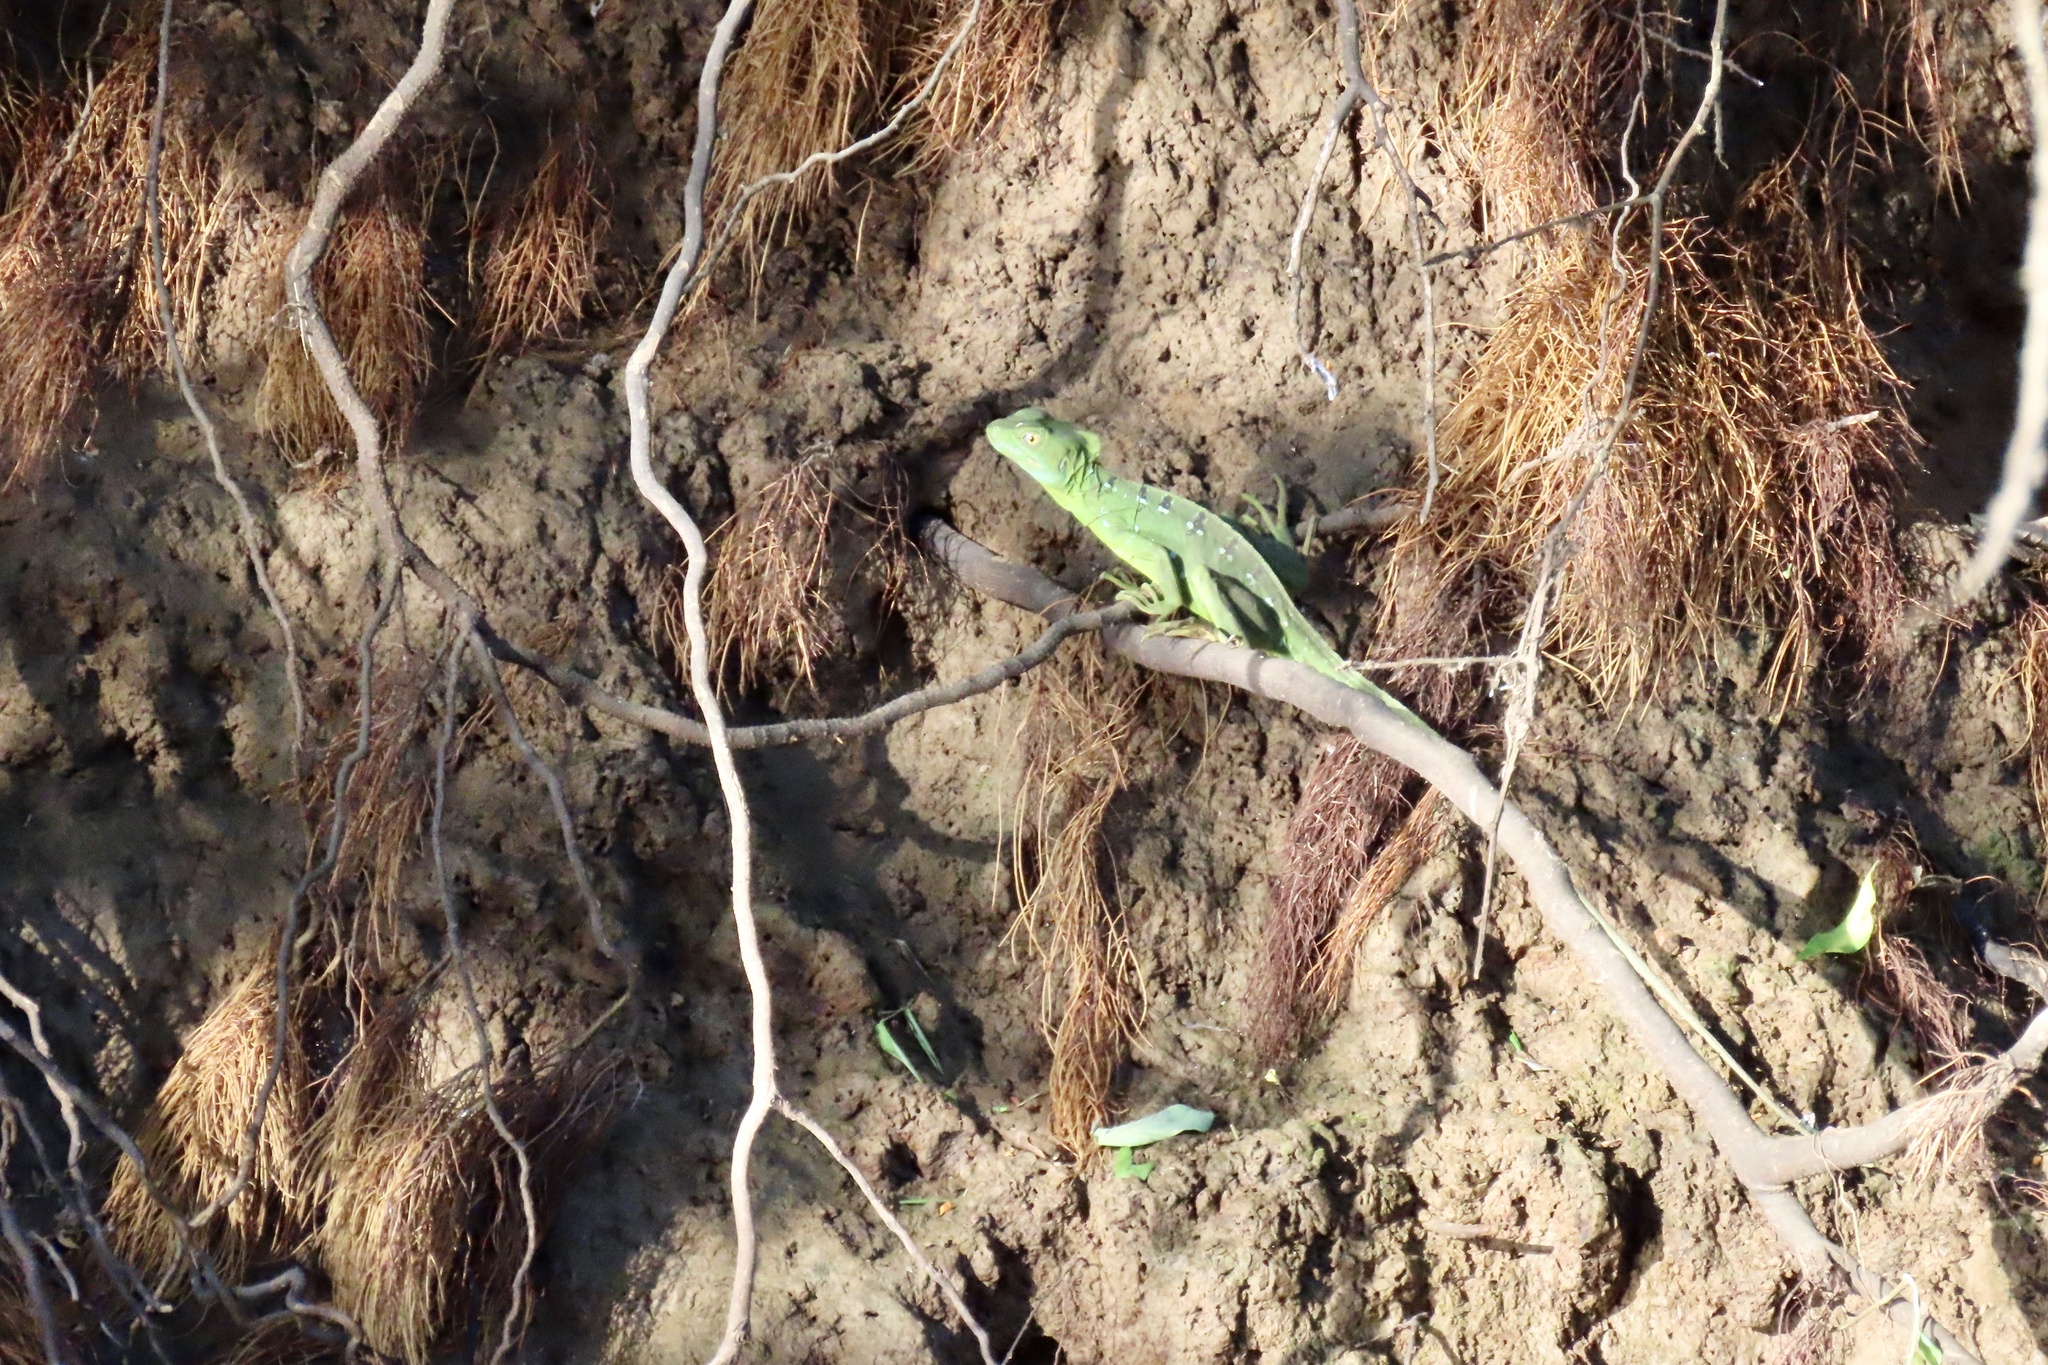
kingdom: Animalia
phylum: Chordata
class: Squamata
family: Corytophanidae
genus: Basiliscus
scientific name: Basiliscus plumifrons
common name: Green basilisk
